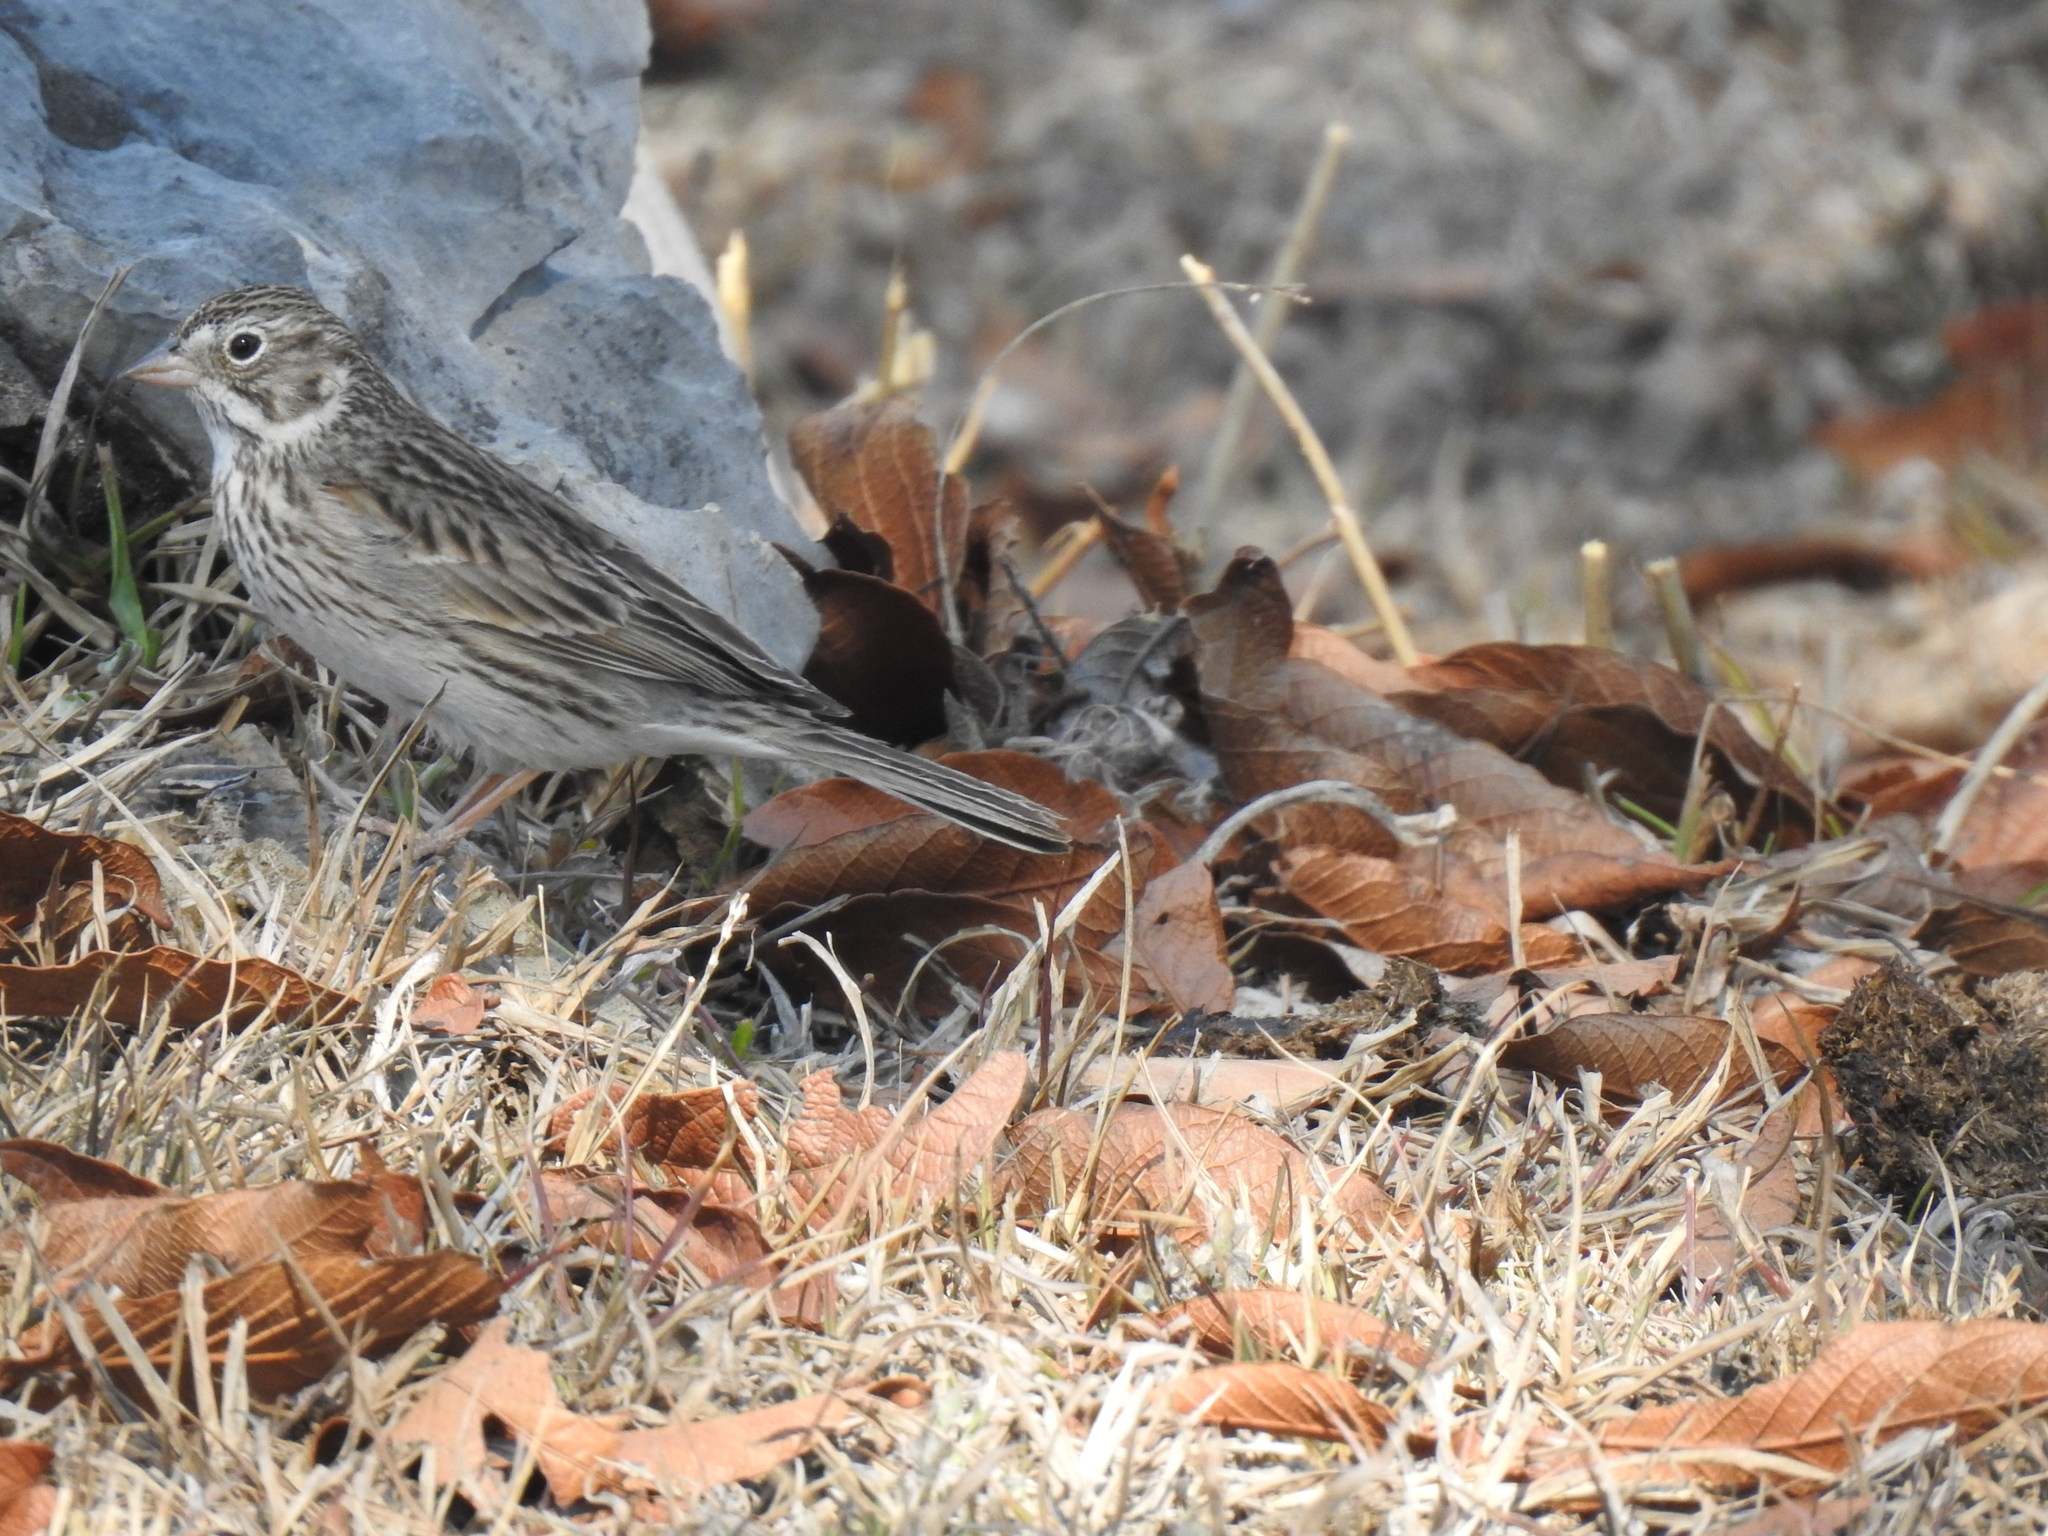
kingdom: Animalia
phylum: Chordata
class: Aves
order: Passeriformes
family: Passerellidae
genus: Pooecetes
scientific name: Pooecetes gramineus
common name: Vesper sparrow
